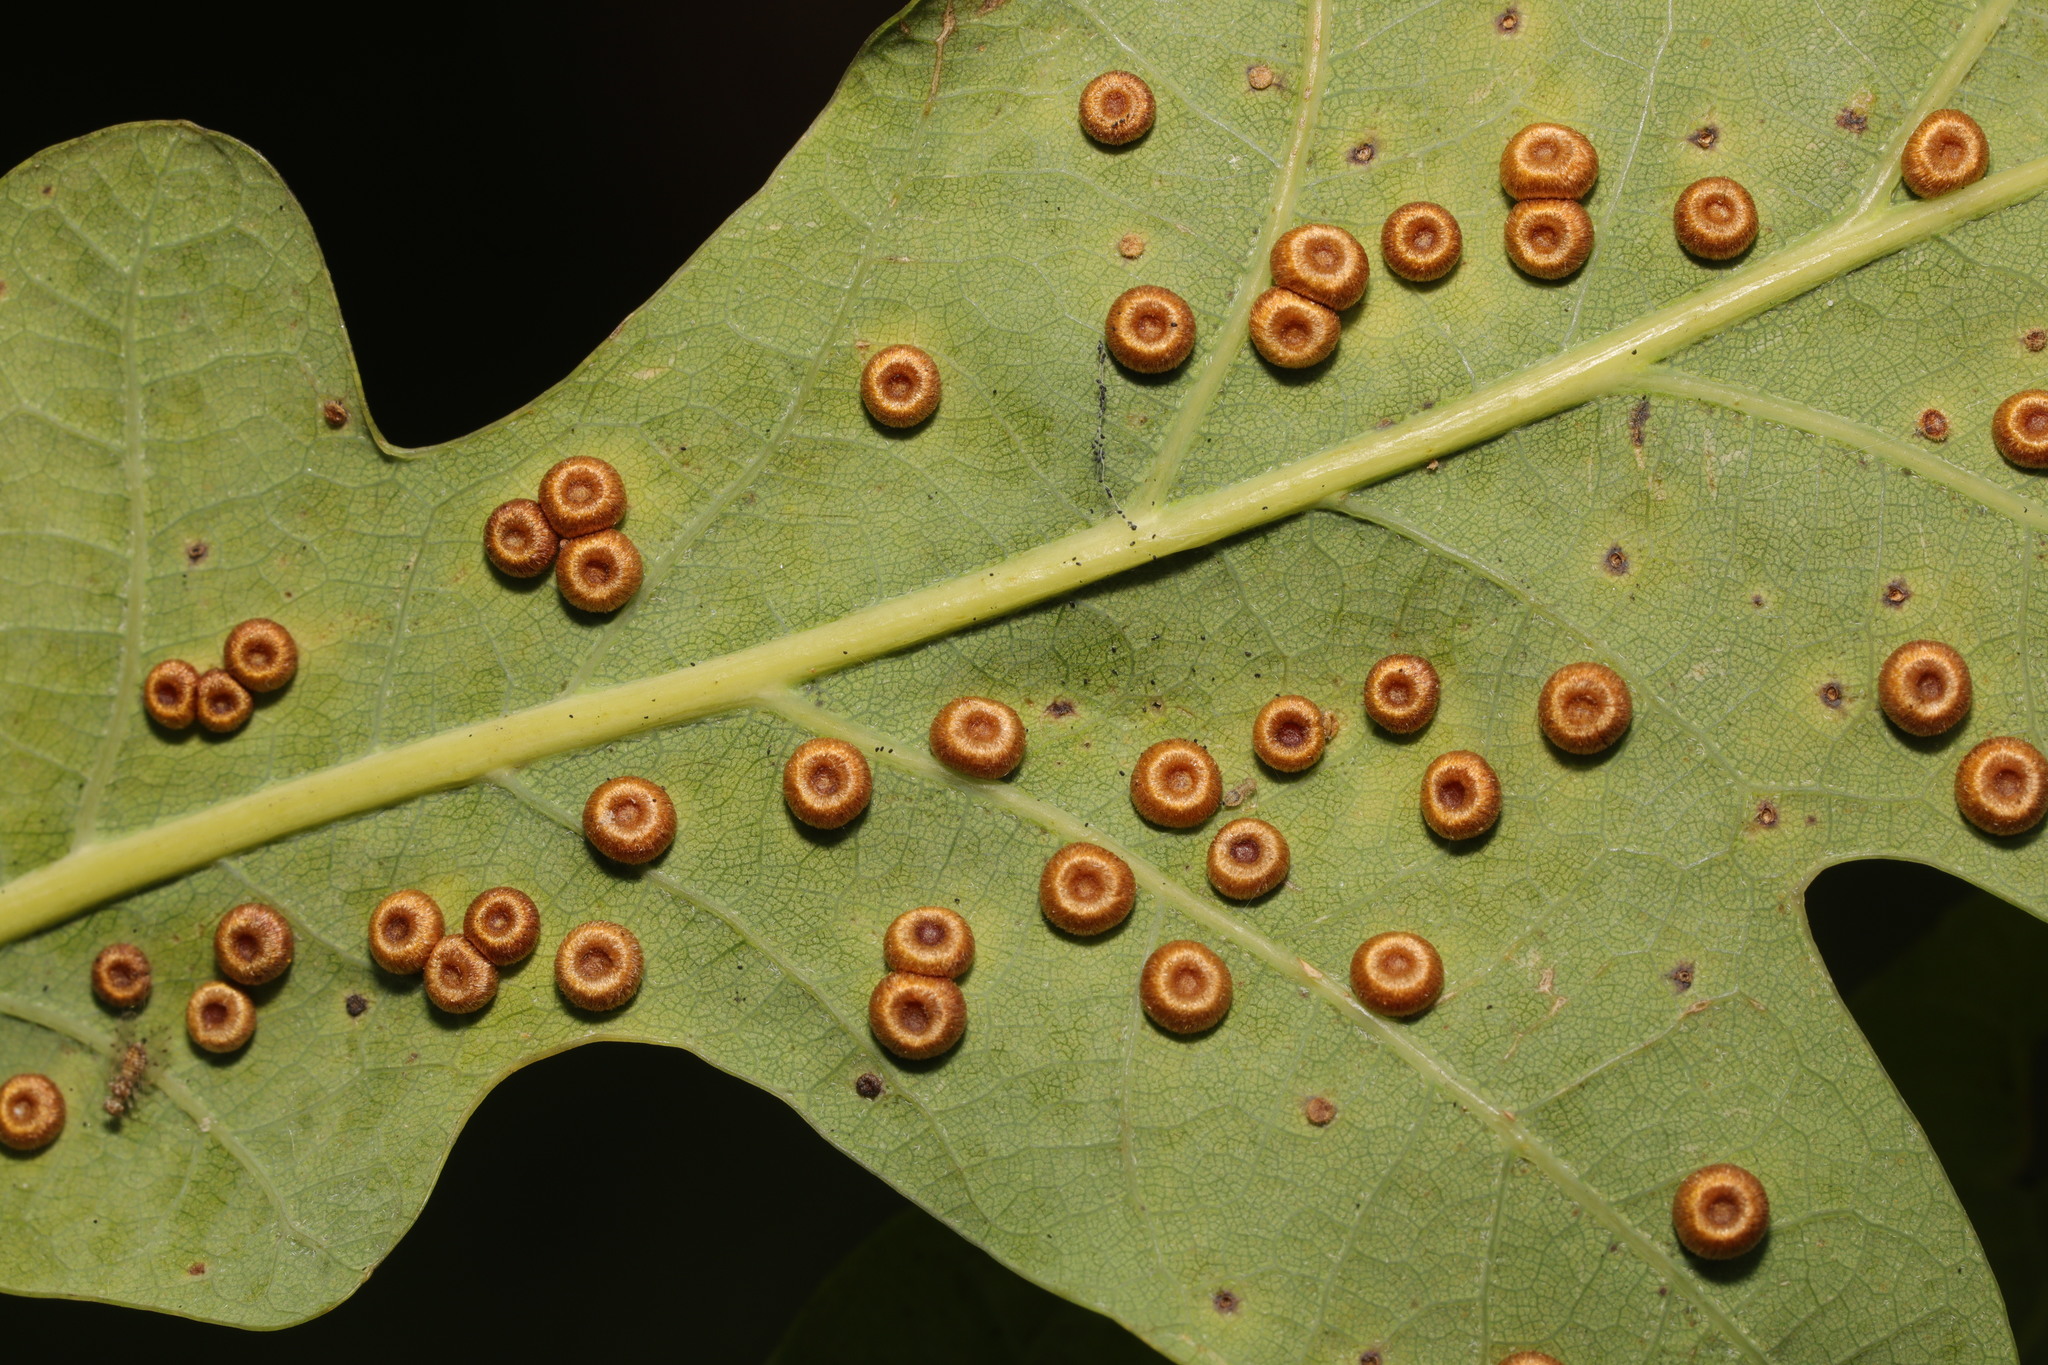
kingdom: Animalia
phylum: Arthropoda
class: Insecta
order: Hymenoptera
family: Cynipidae
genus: Neuroterus
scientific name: Neuroterus numismalis
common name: Silk-button spangle gall
